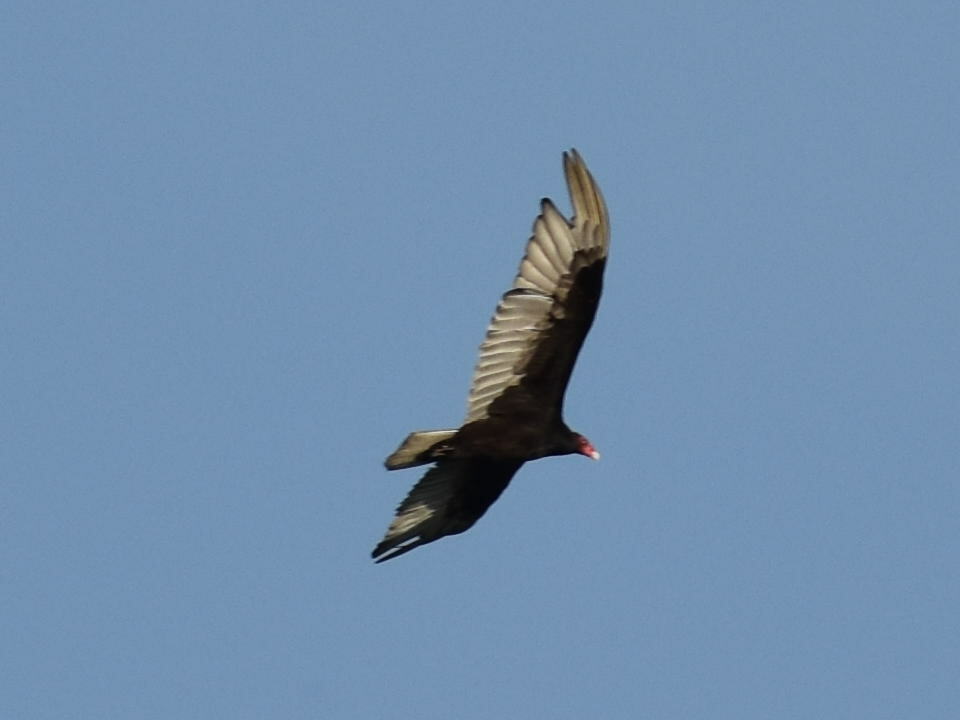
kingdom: Animalia
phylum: Chordata
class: Aves
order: Accipitriformes
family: Cathartidae
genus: Cathartes
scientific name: Cathartes aura
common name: Turkey vulture
